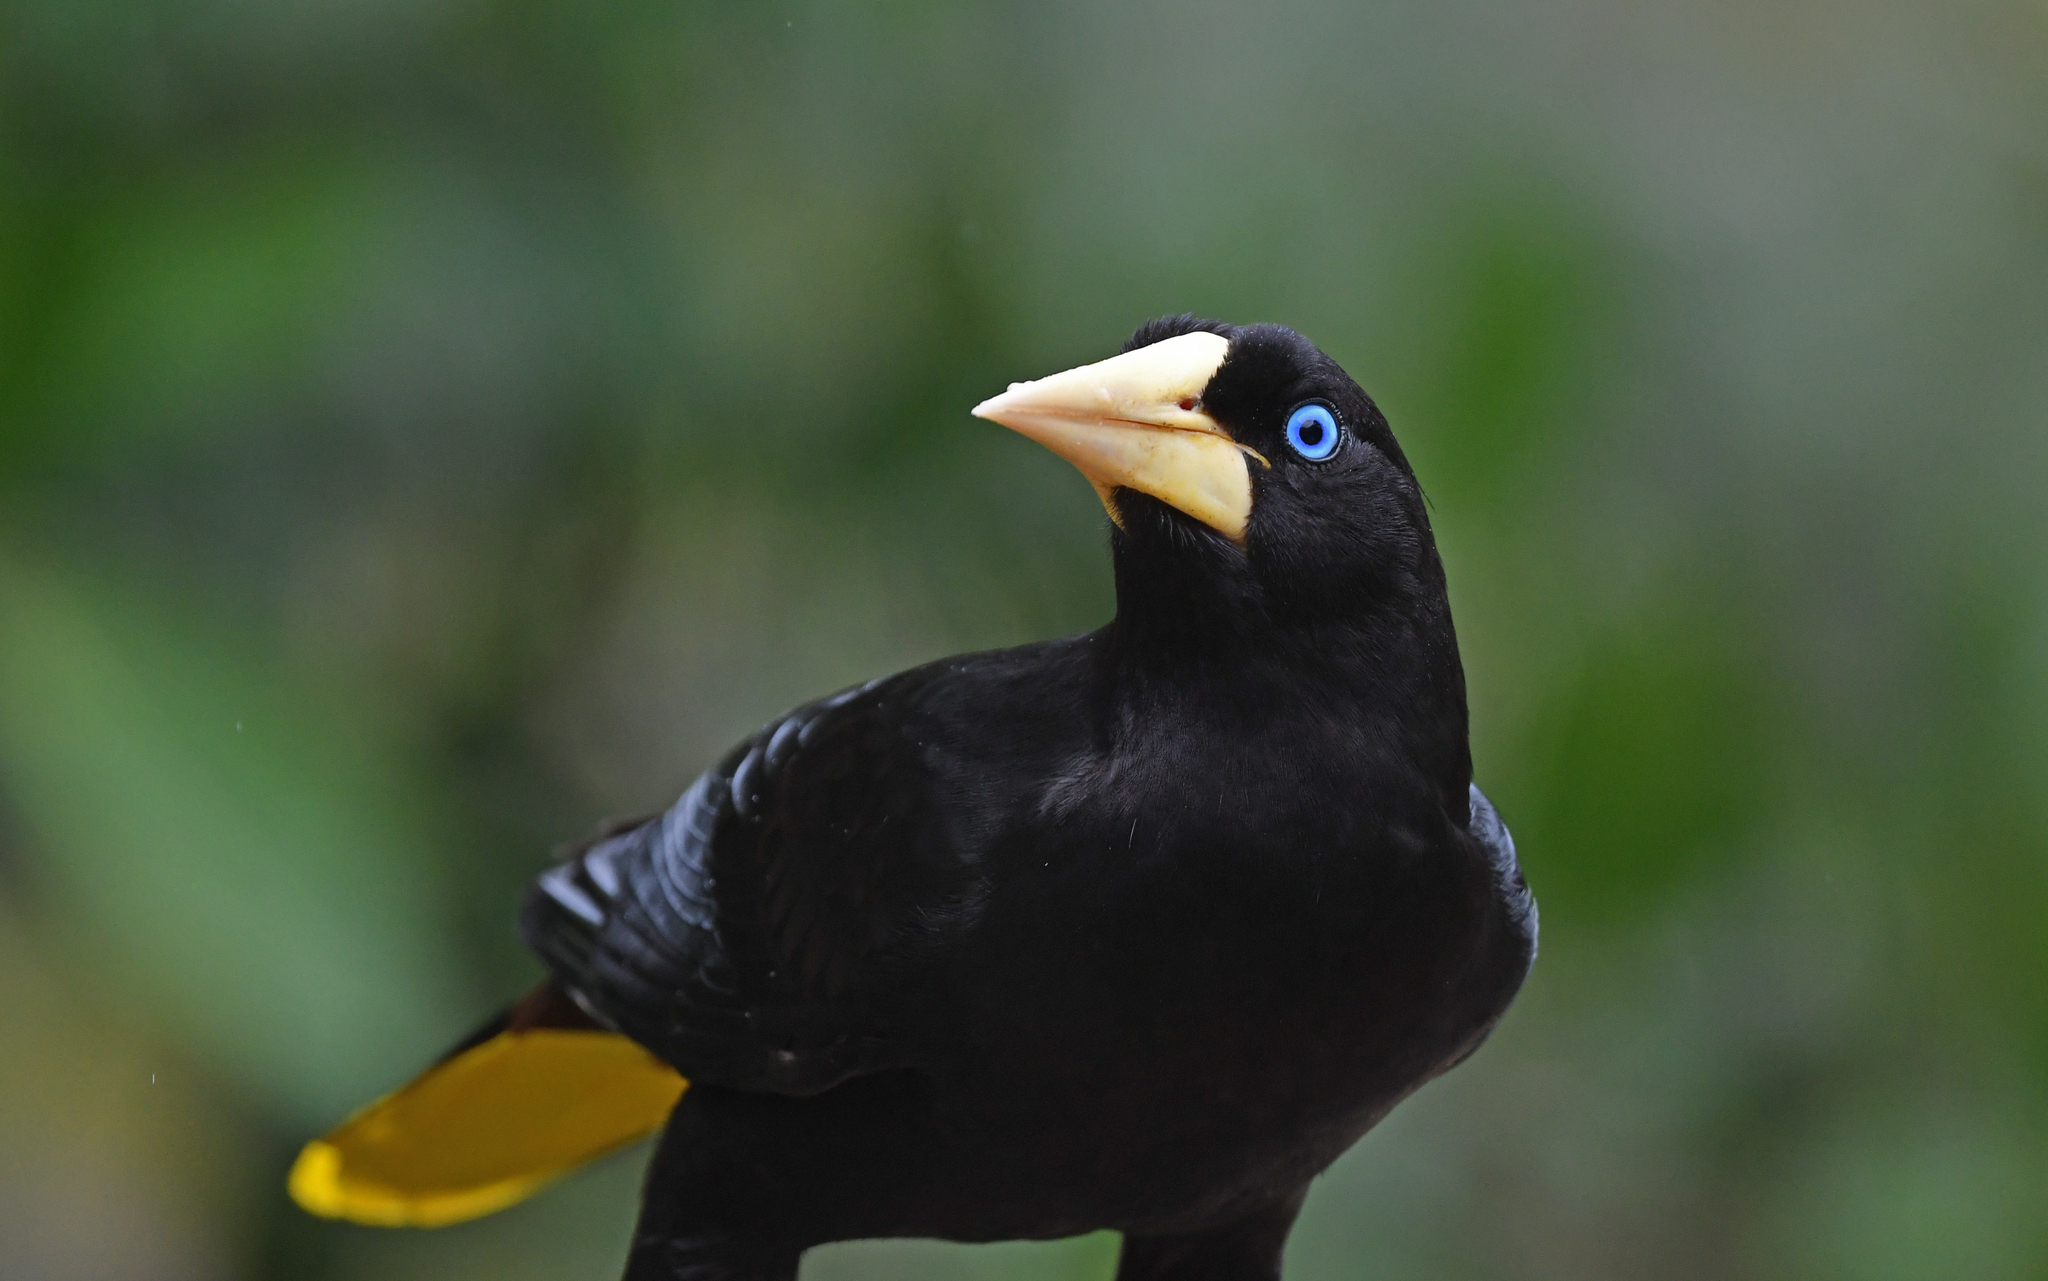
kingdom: Animalia
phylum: Chordata
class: Aves
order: Passeriformes
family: Icteridae
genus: Psarocolius
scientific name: Psarocolius decumanus
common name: Crested oropendola
